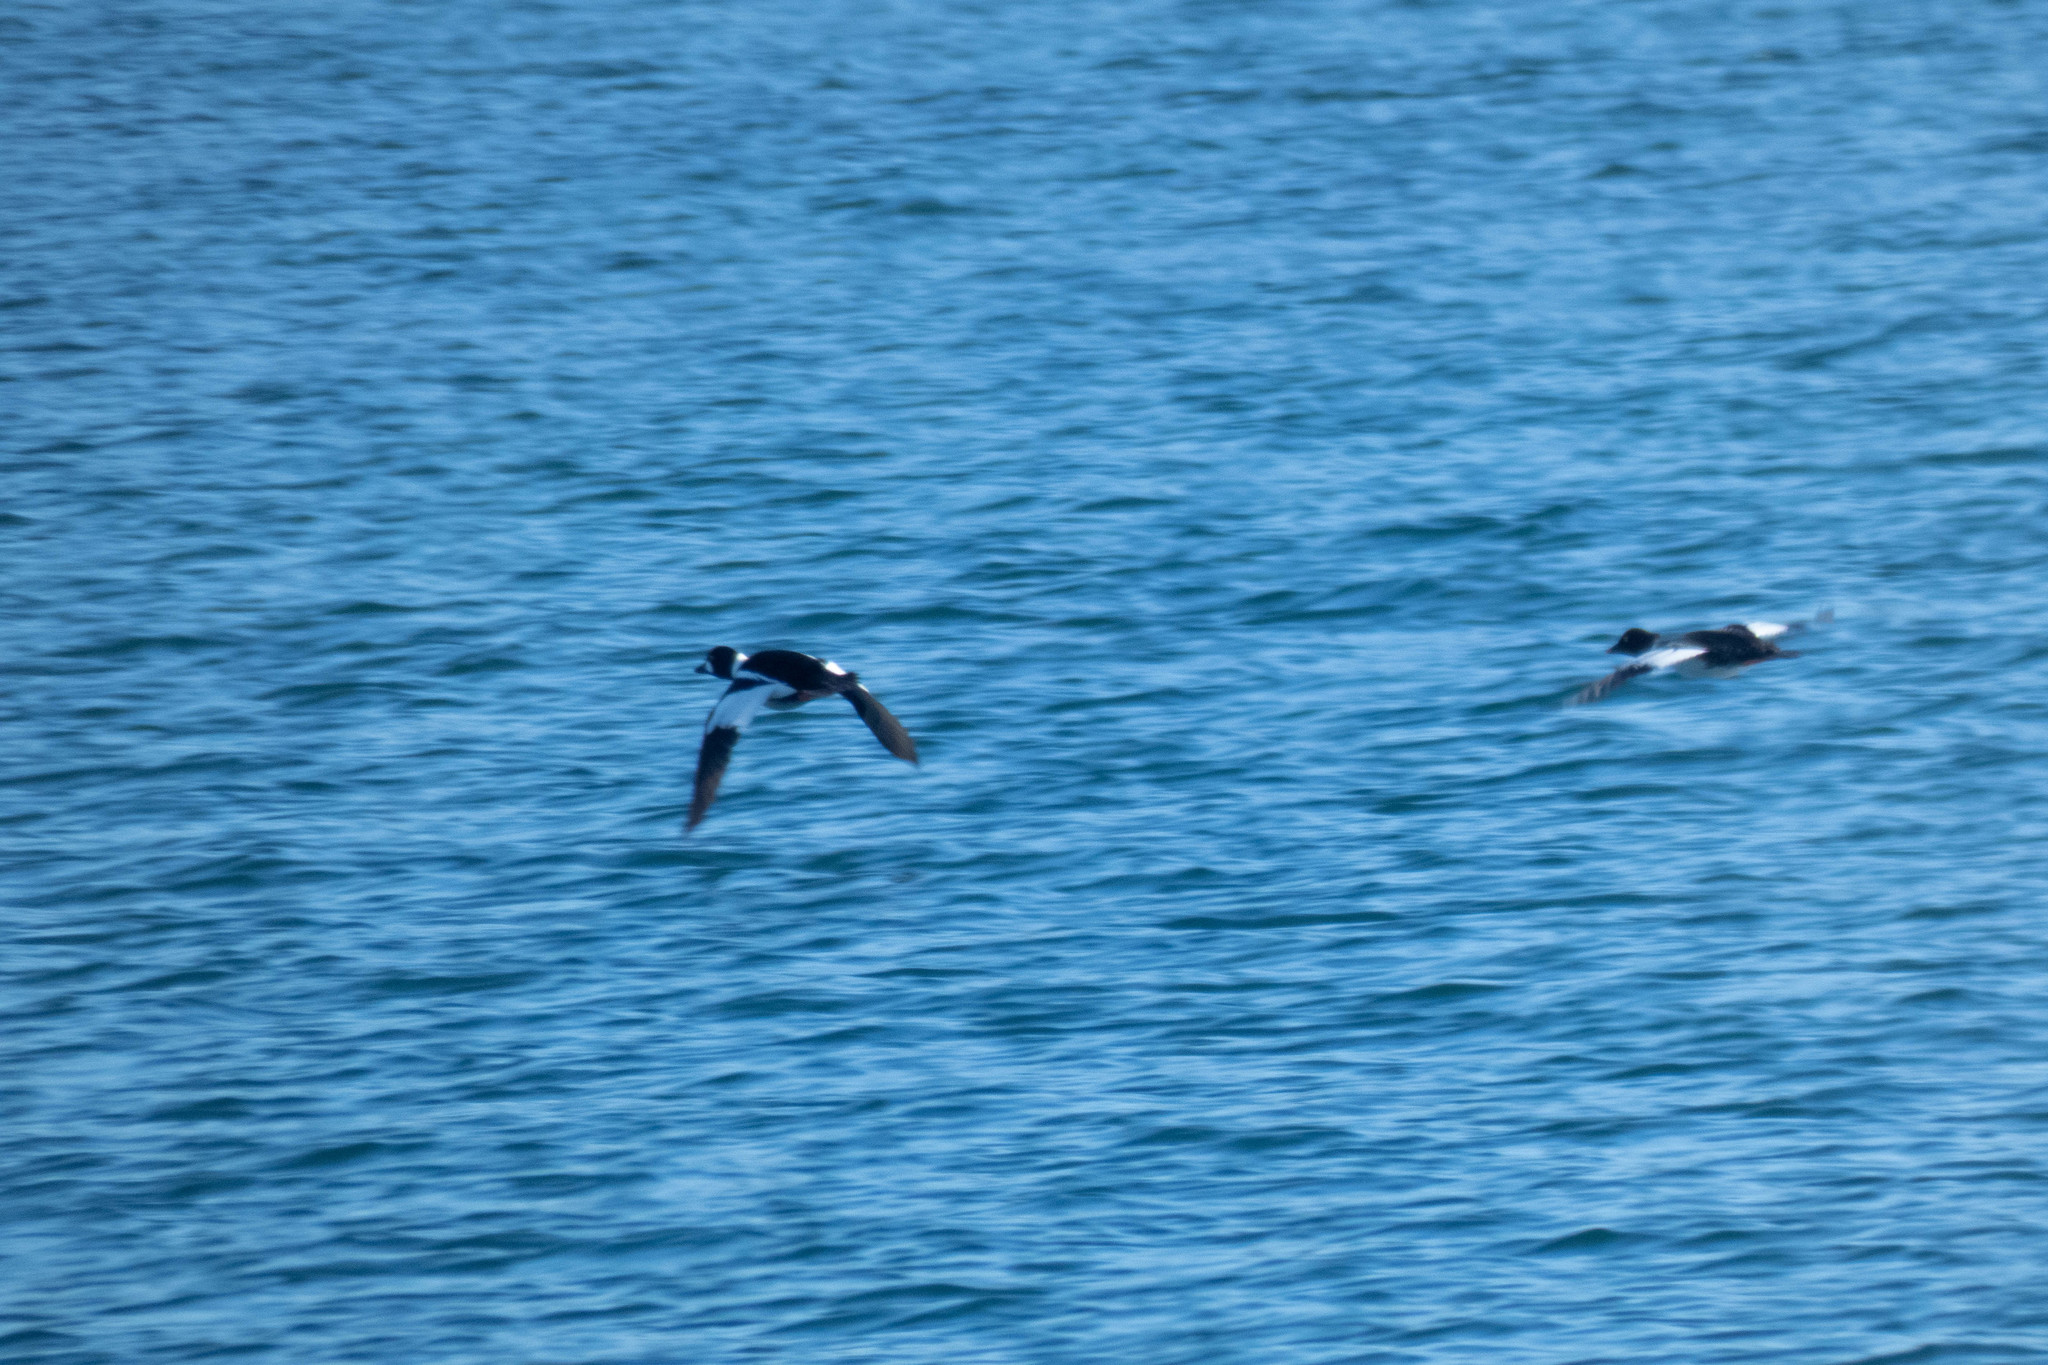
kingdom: Animalia
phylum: Chordata
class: Aves
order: Anseriformes
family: Anatidae
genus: Bucephala
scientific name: Bucephala clangula
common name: Common goldeneye
